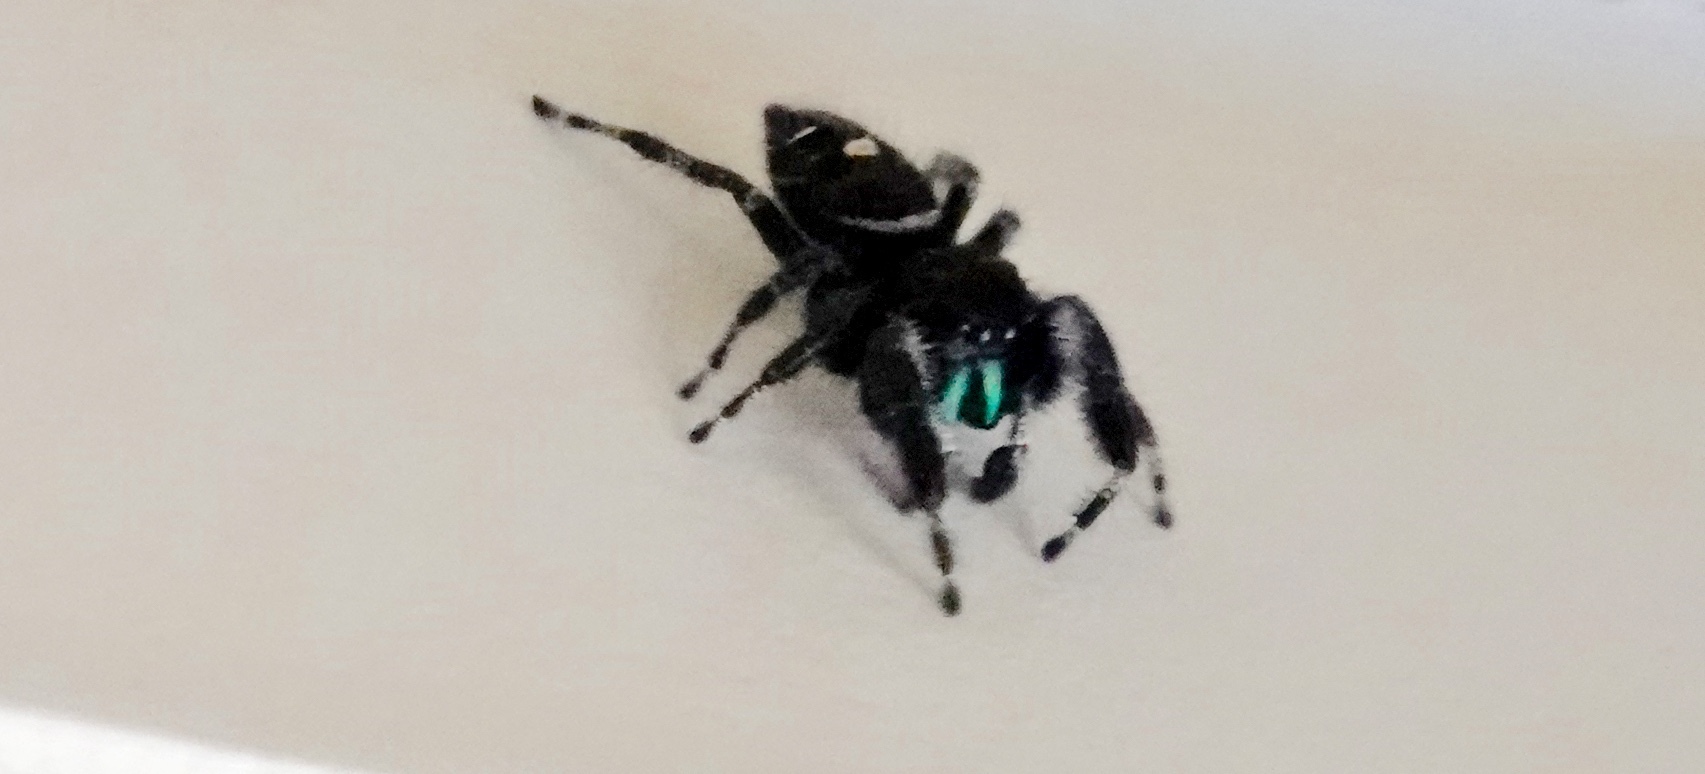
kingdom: Animalia
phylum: Arthropoda
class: Arachnida
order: Araneae
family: Salticidae
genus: Phidippus
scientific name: Phidippus audax
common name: Bold jumper
